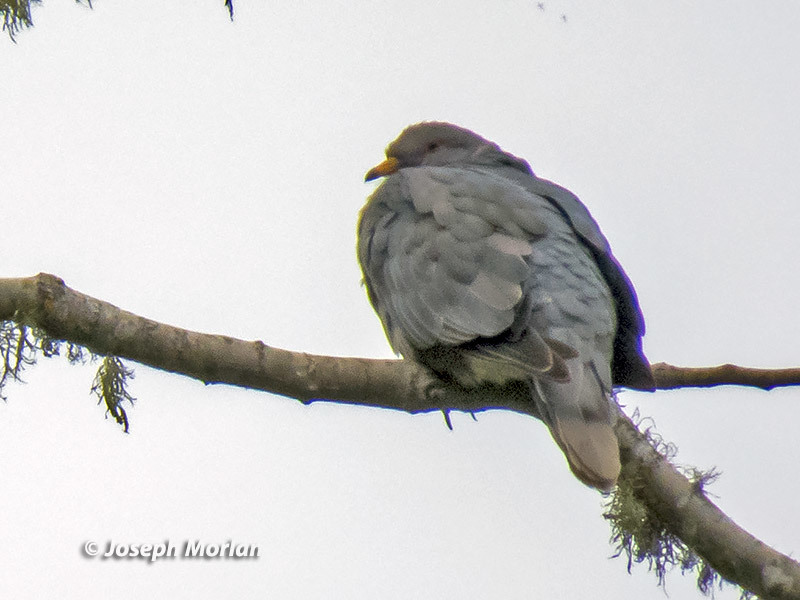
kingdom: Animalia
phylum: Chordata
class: Aves
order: Columbiformes
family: Columbidae
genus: Patagioenas
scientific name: Patagioenas fasciata
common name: Band-tailed pigeon
